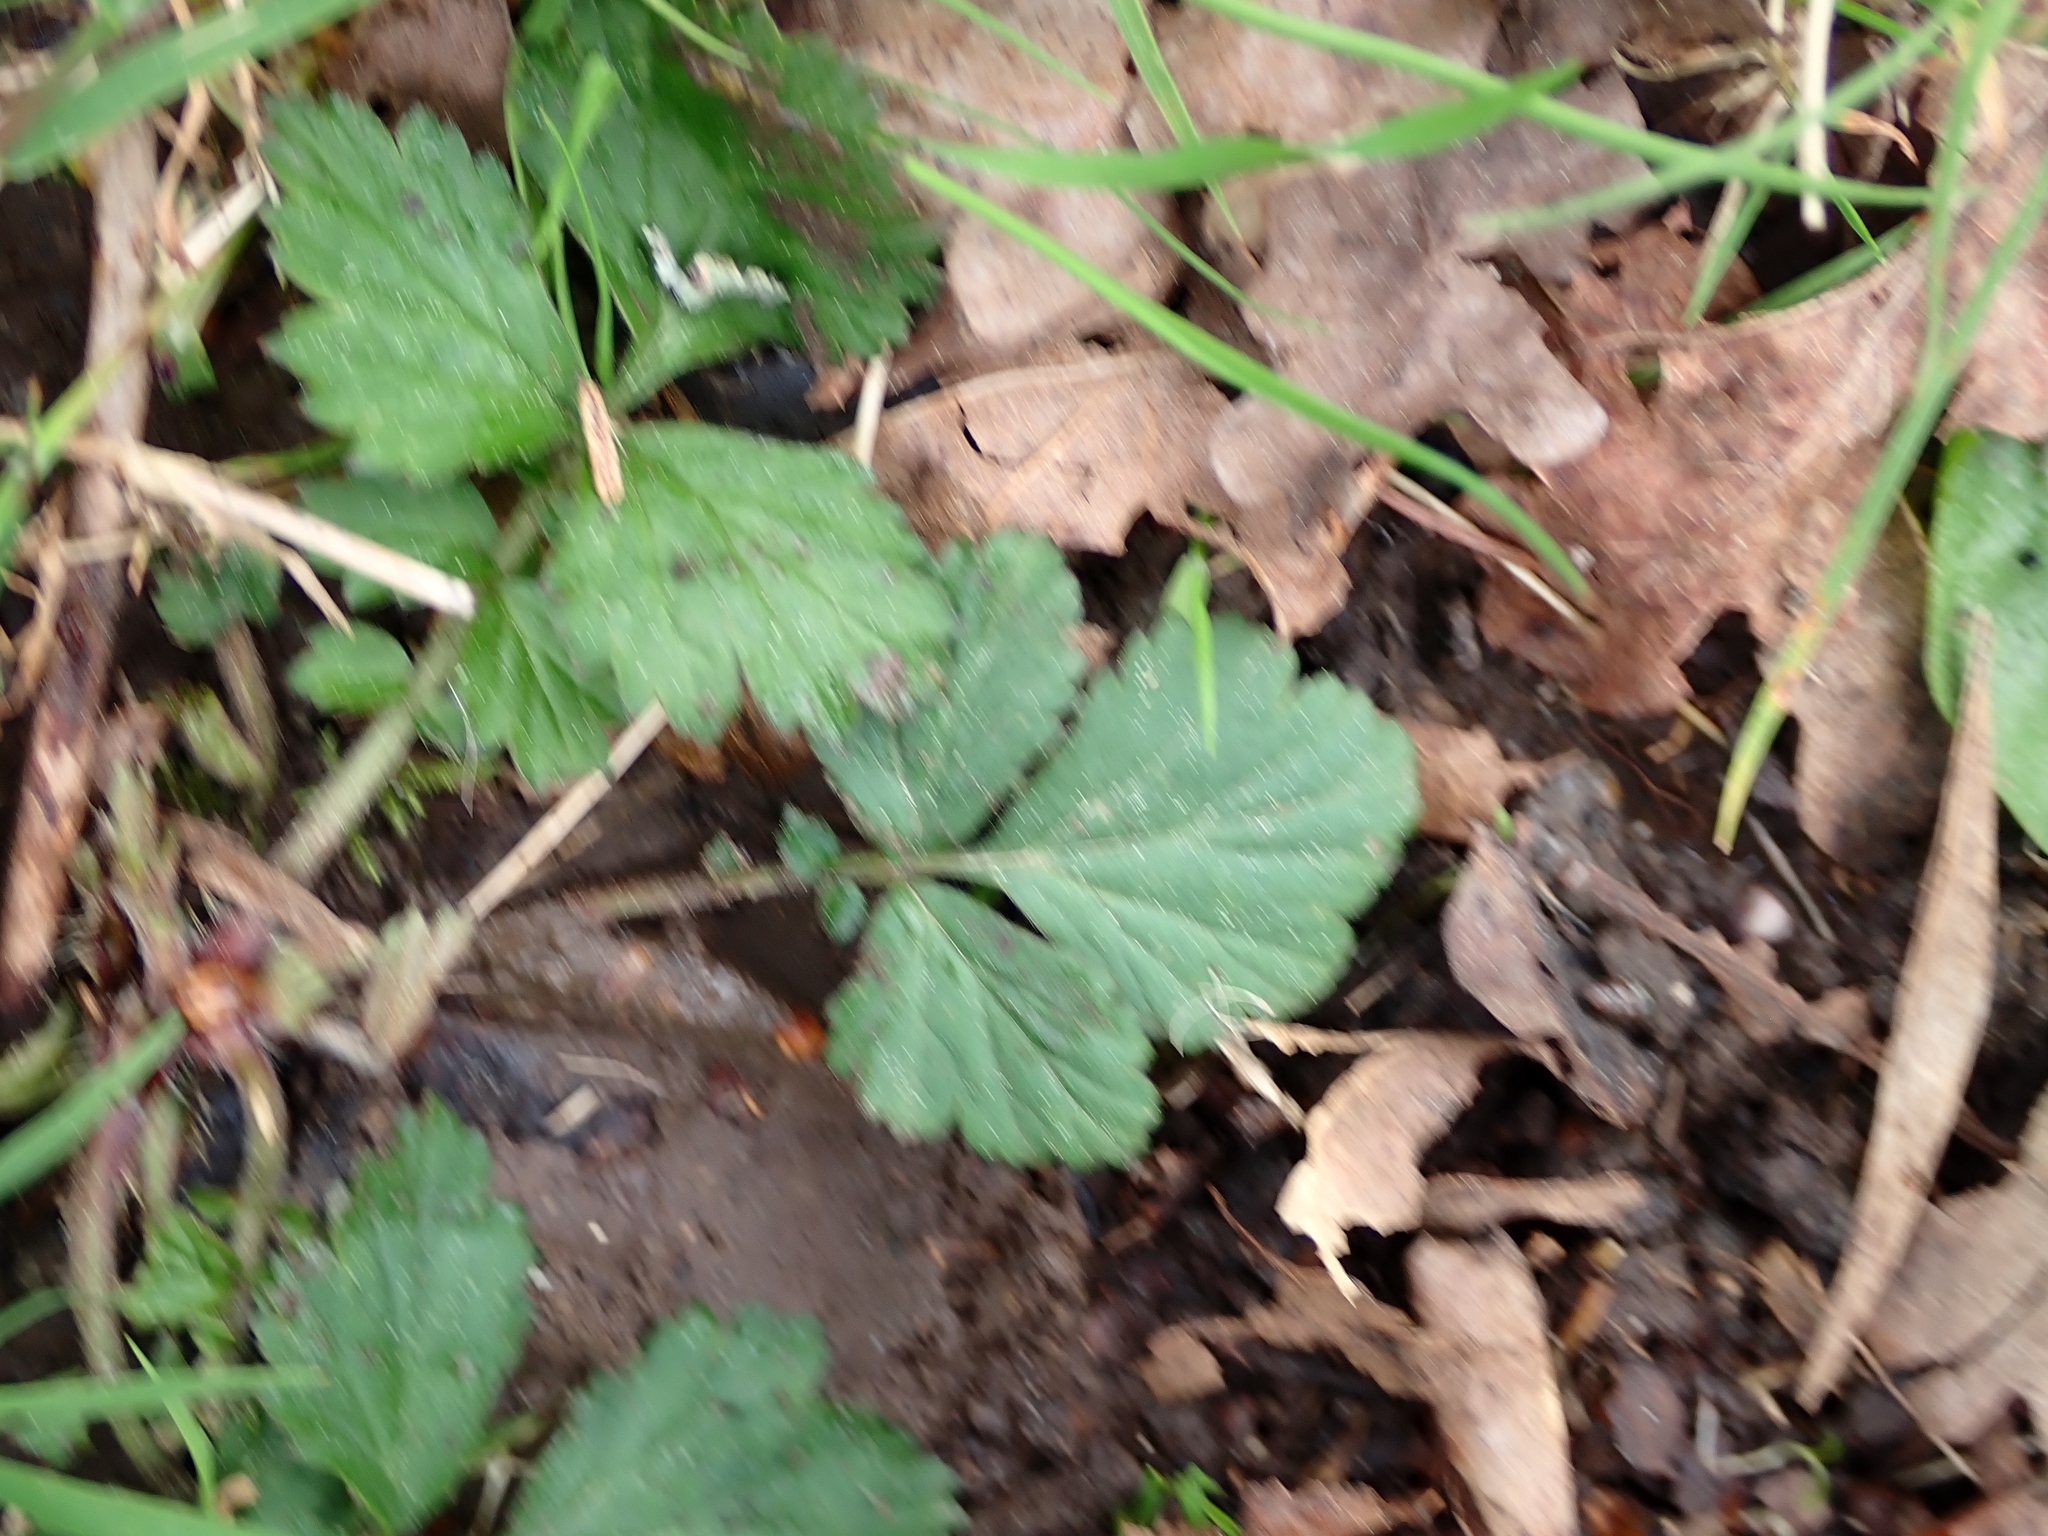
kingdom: Plantae
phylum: Tracheophyta
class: Magnoliopsida
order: Rosales
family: Rosaceae
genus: Geum
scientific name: Geum urbanum
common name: Wood avens
